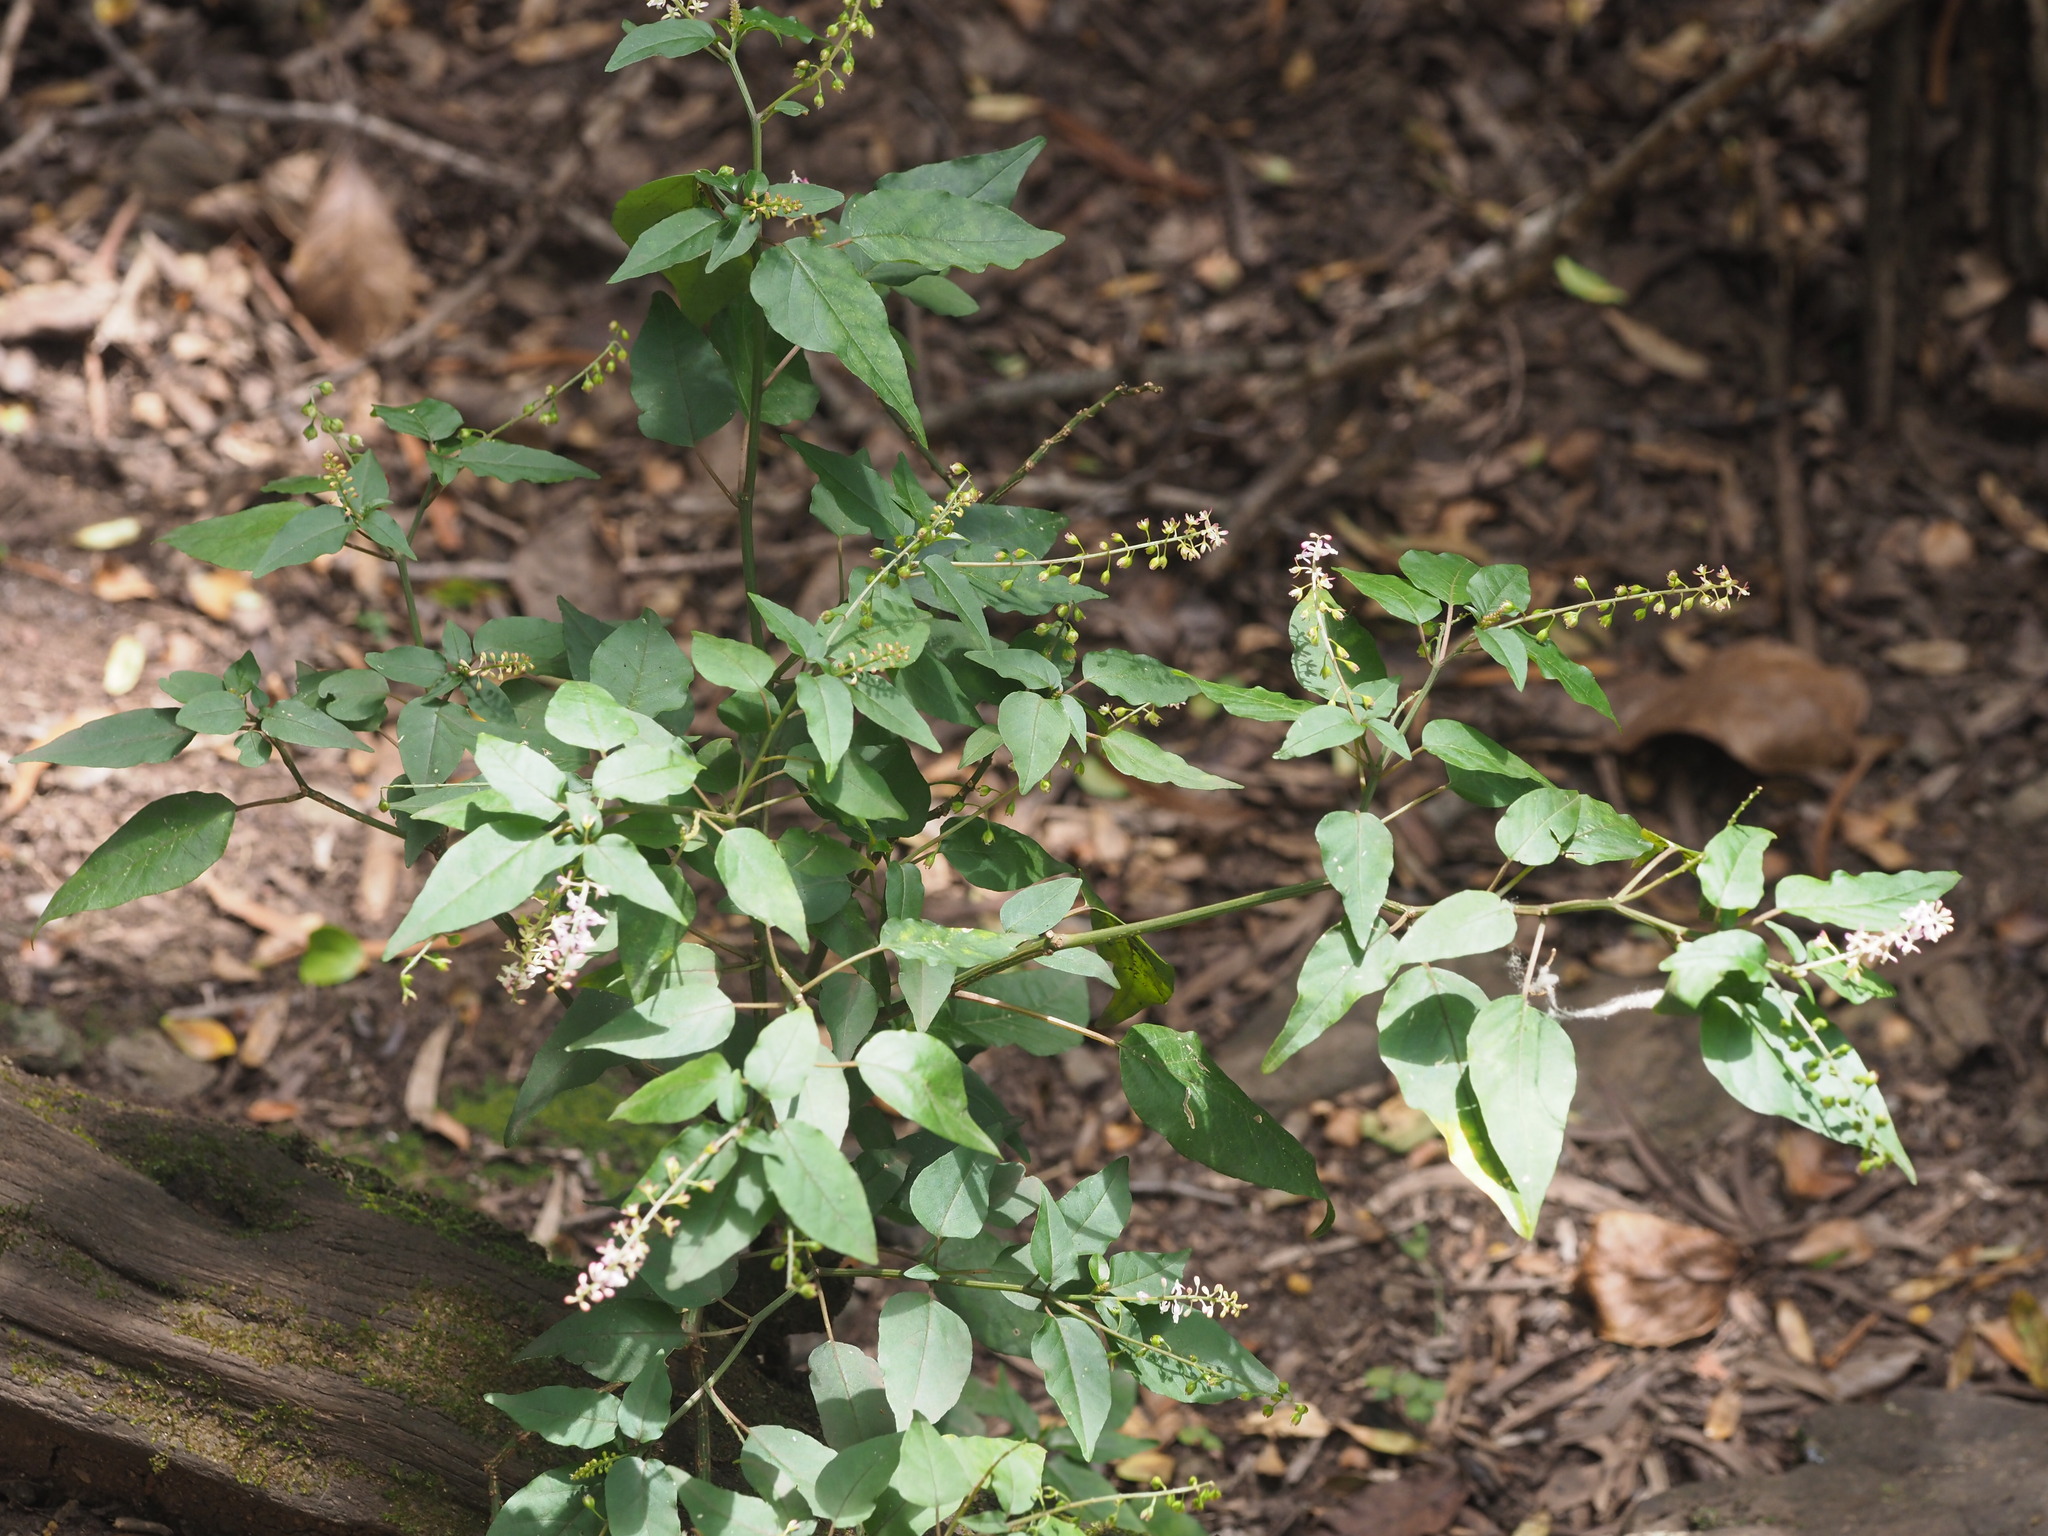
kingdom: Plantae
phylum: Tracheophyta
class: Magnoliopsida
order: Caryophyllales
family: Phytolaccaceae
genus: Rivina
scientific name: Rivina humilis
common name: Rougeplant
